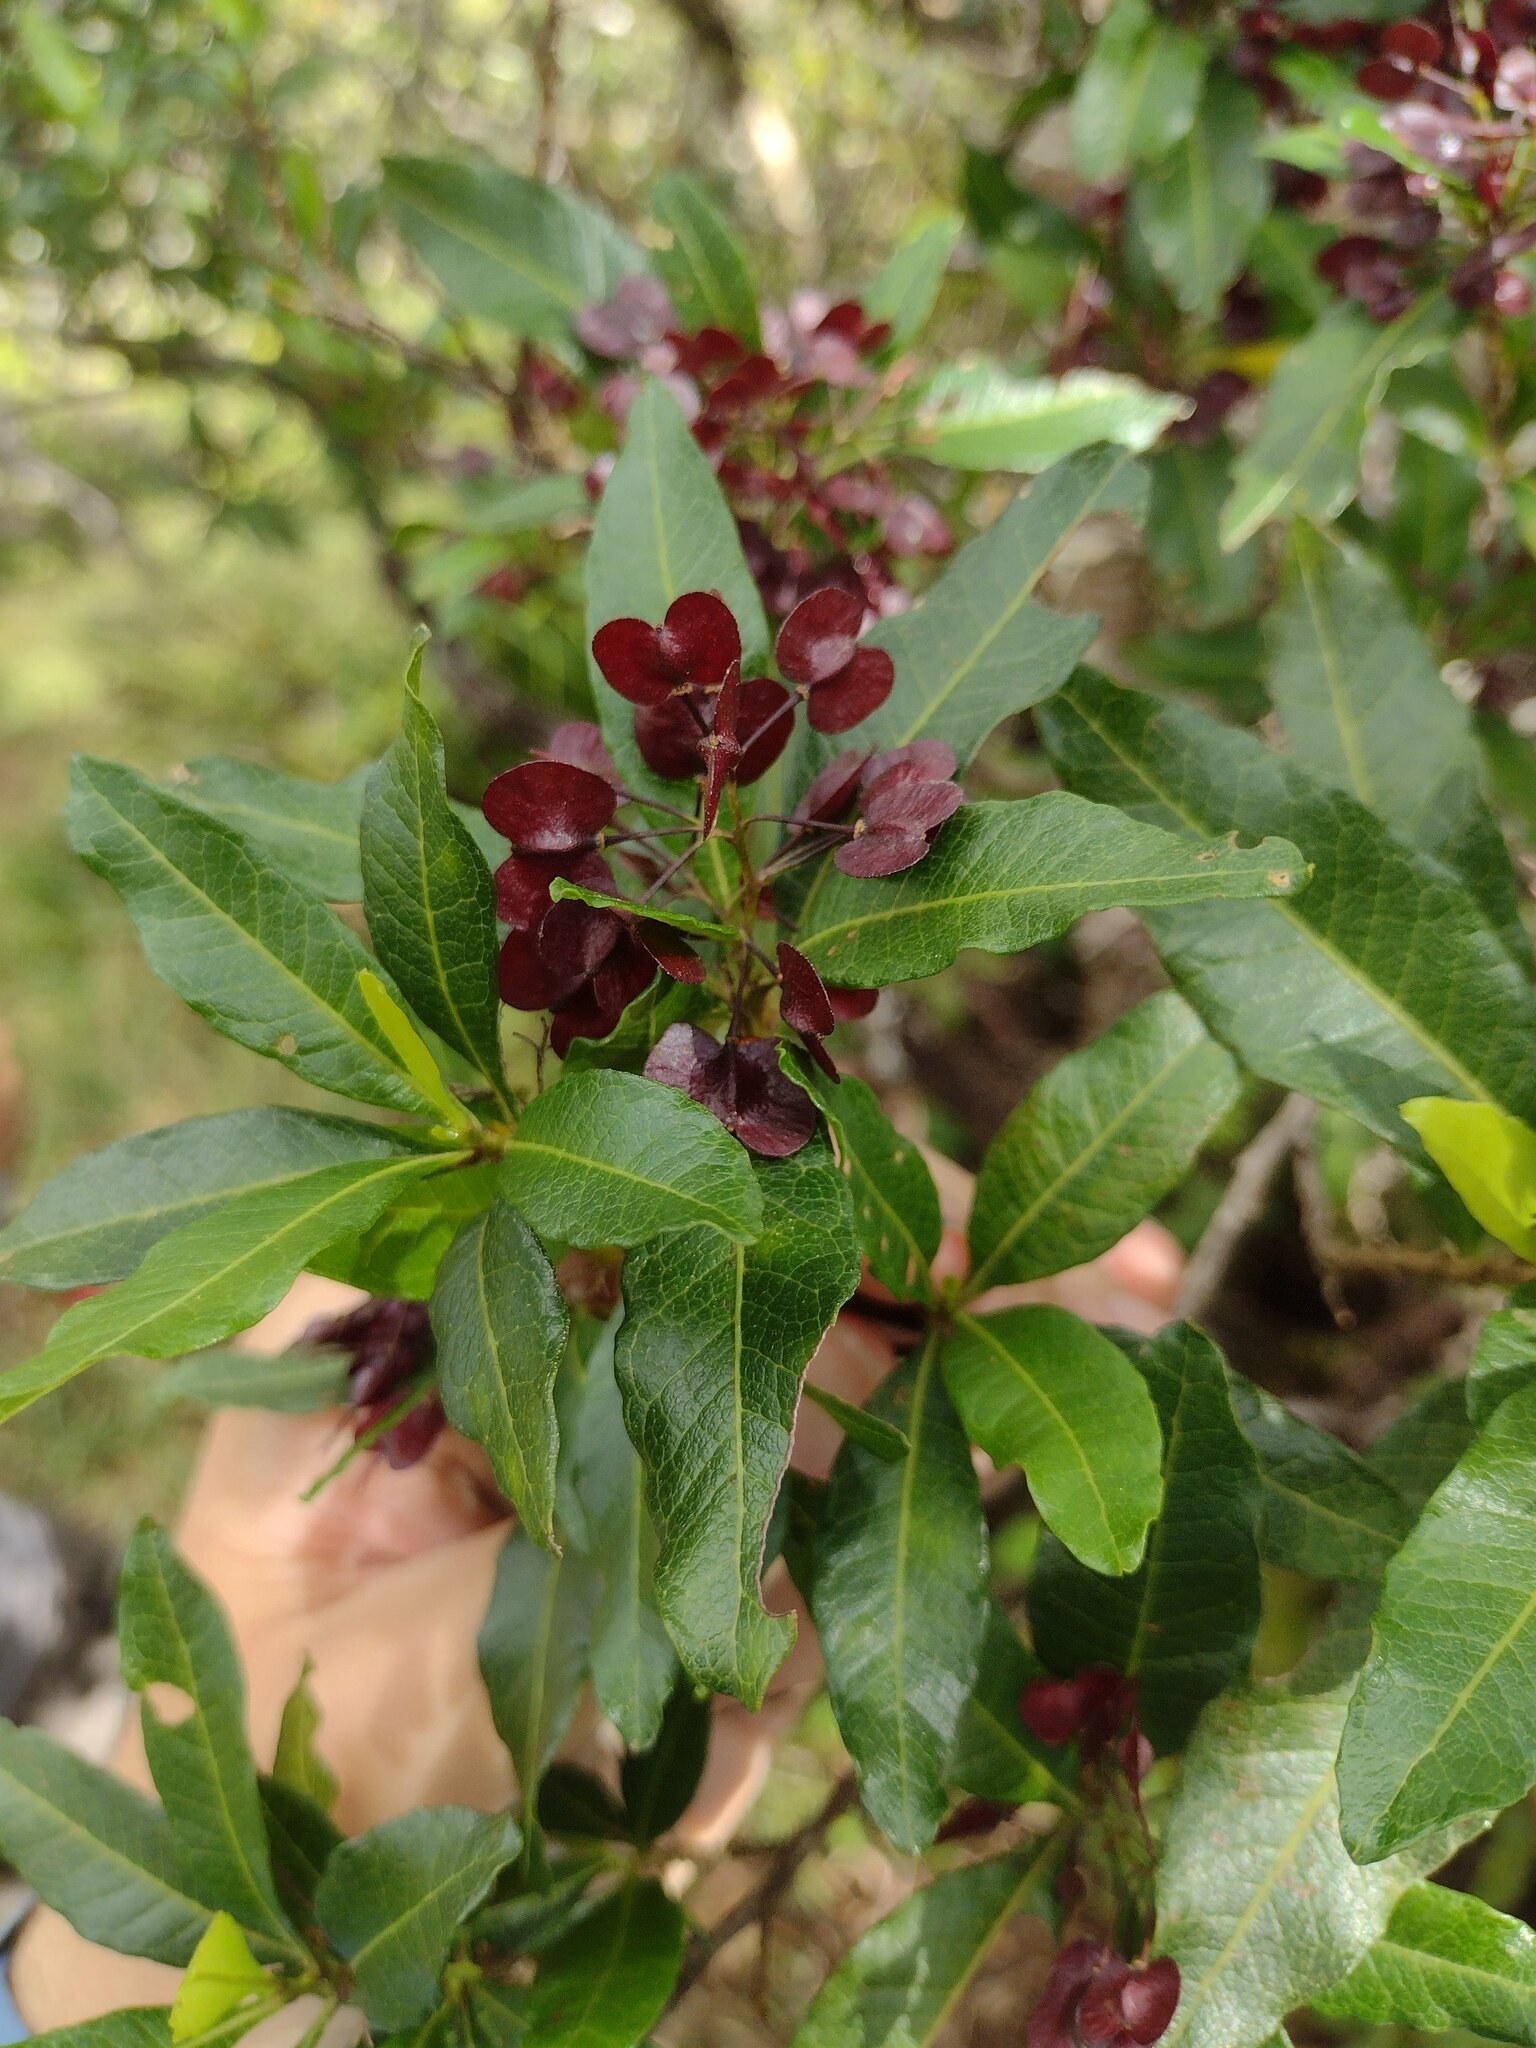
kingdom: Plantae
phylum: Tracheophyta
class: Magnoliopsida
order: Sapindales
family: Sapindaceae
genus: Dodonaea
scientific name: Dodonaea viscosa
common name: Hopbush
